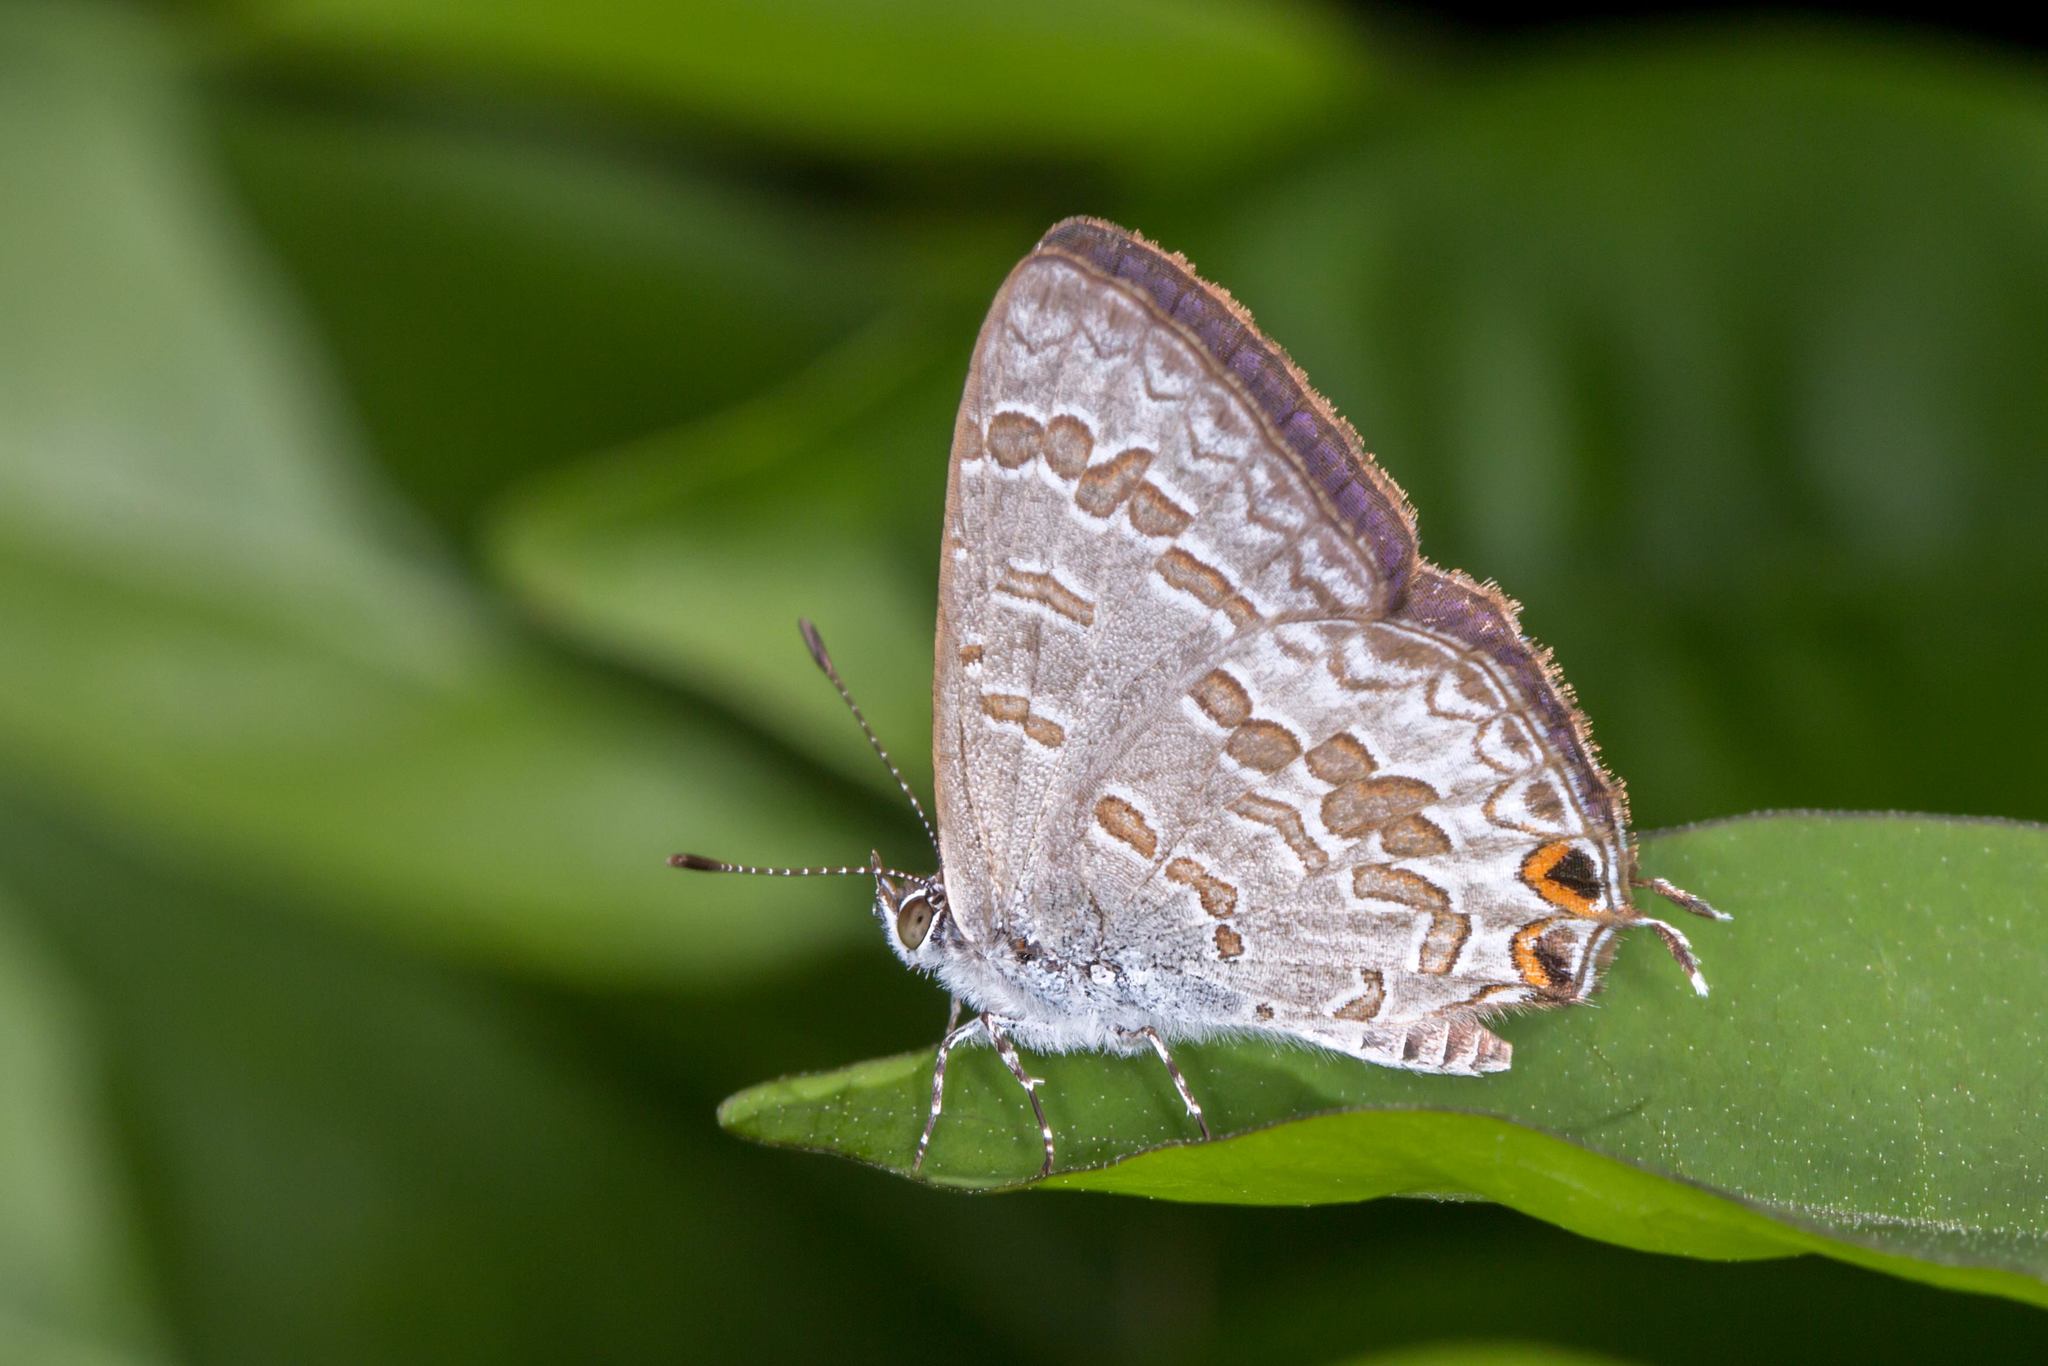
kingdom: Animalia
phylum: Arthropoda
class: Insecta
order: Lepidoptera
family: Lycaenidae
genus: Catopyrops
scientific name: Catopyrops florinda
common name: Speckled line-blue
